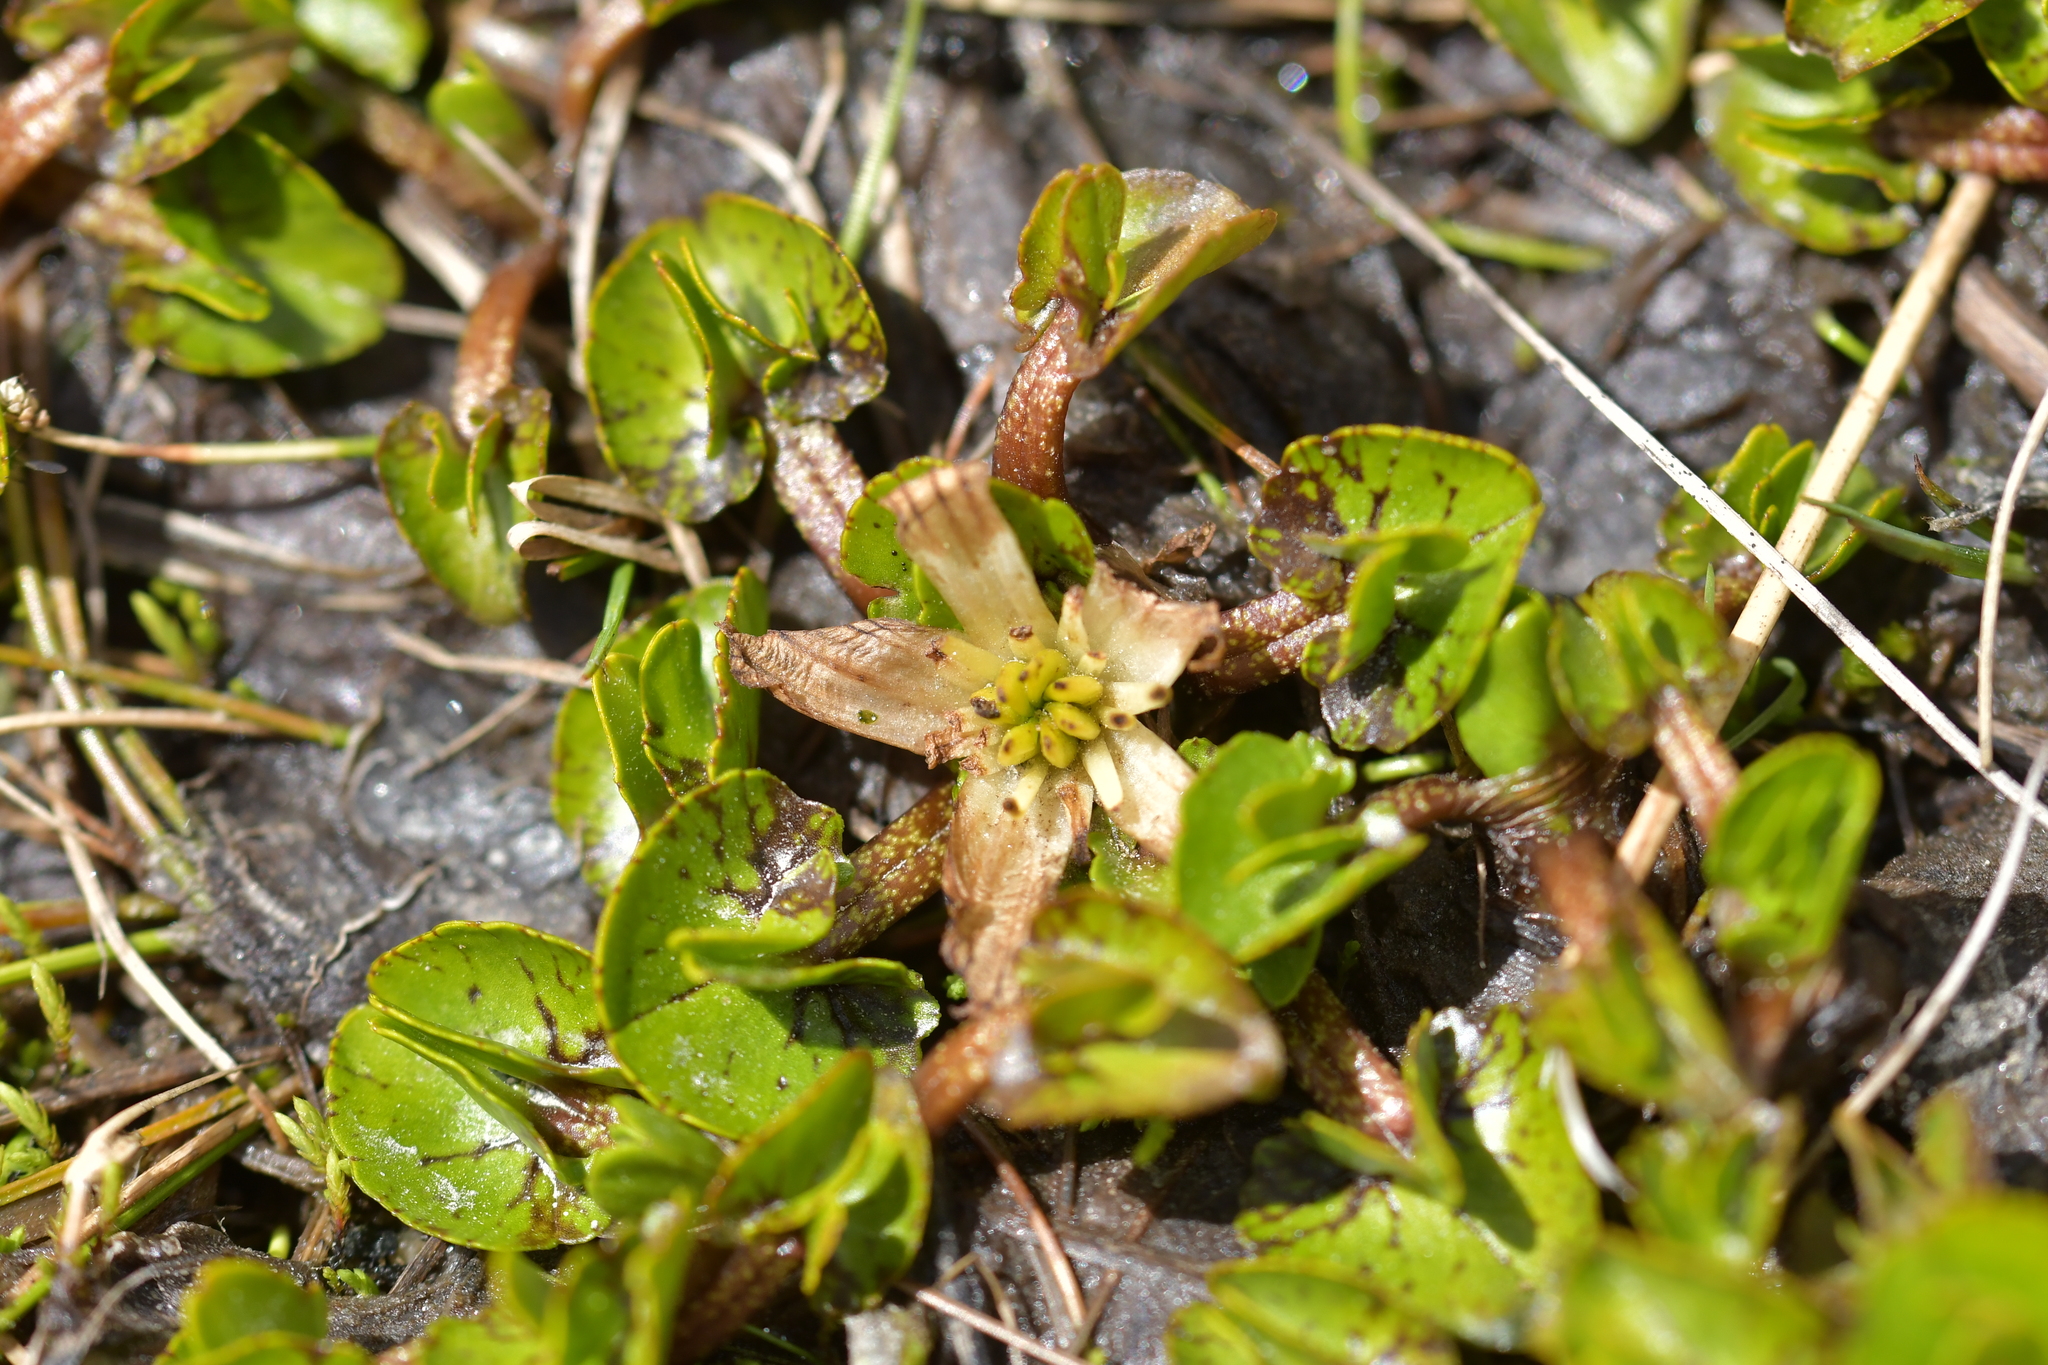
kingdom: Plantae
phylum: Tracheophyta
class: Magnoliopsida
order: Ranunculales
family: Ranunculaceae
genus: Caltha
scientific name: Caltha obtusa
